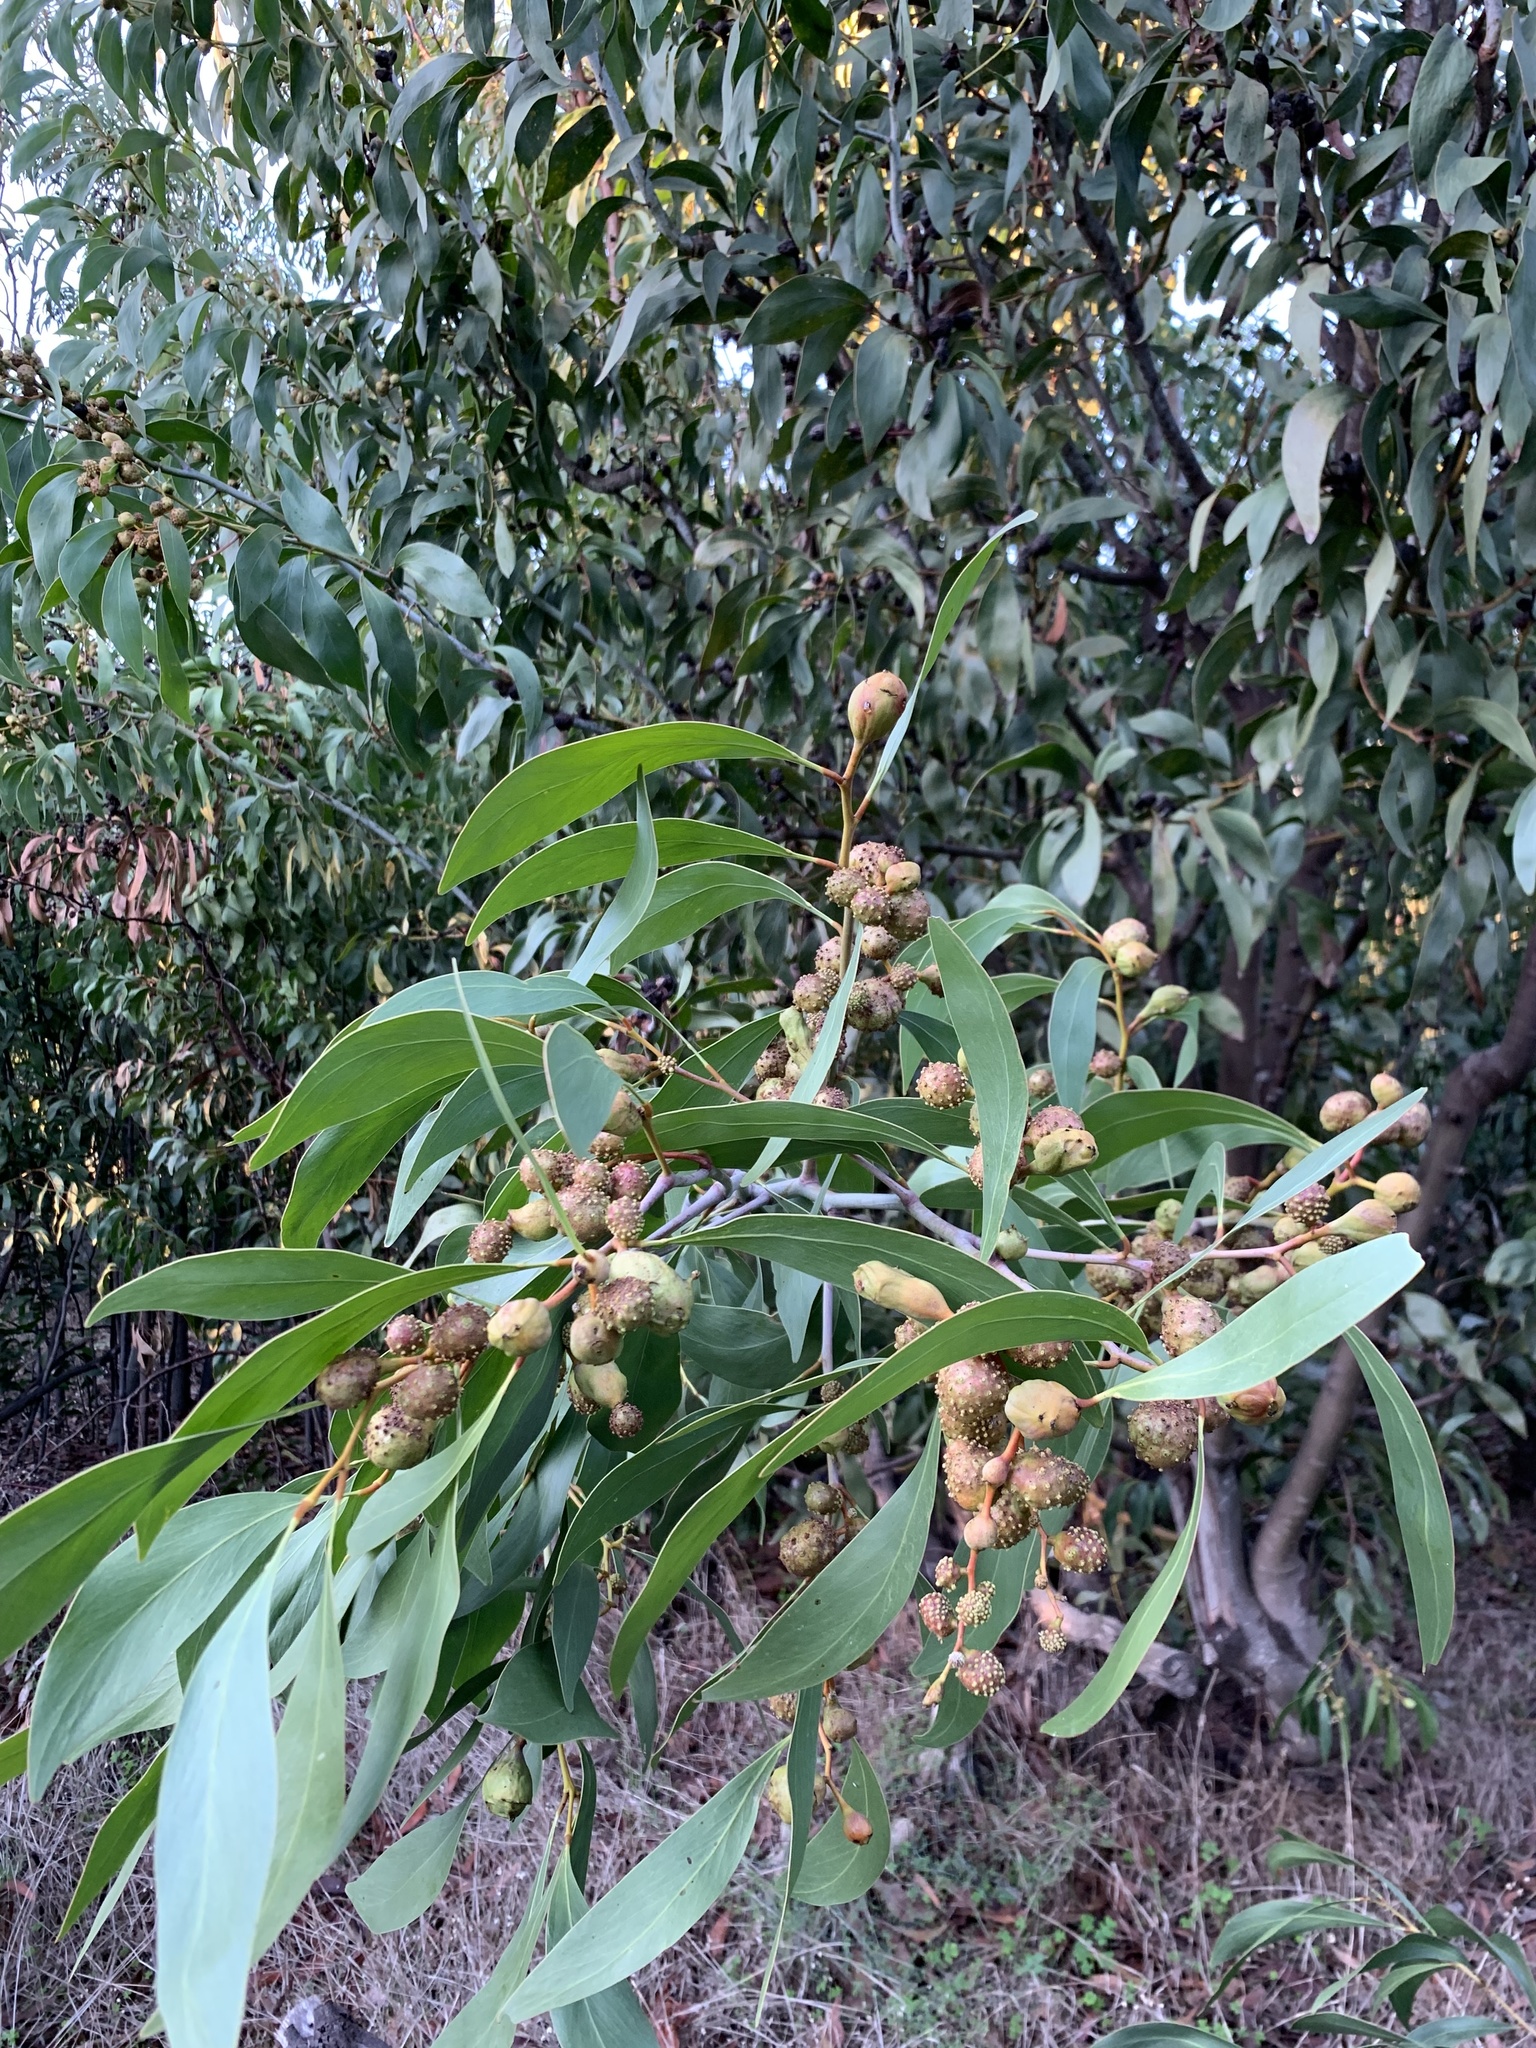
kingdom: Plantae
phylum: Tracheophyta
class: Magnoliopsida
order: Fabales
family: Fabaceae
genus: Acacia
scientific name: Acacia pycnantha
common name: Golden wattle
